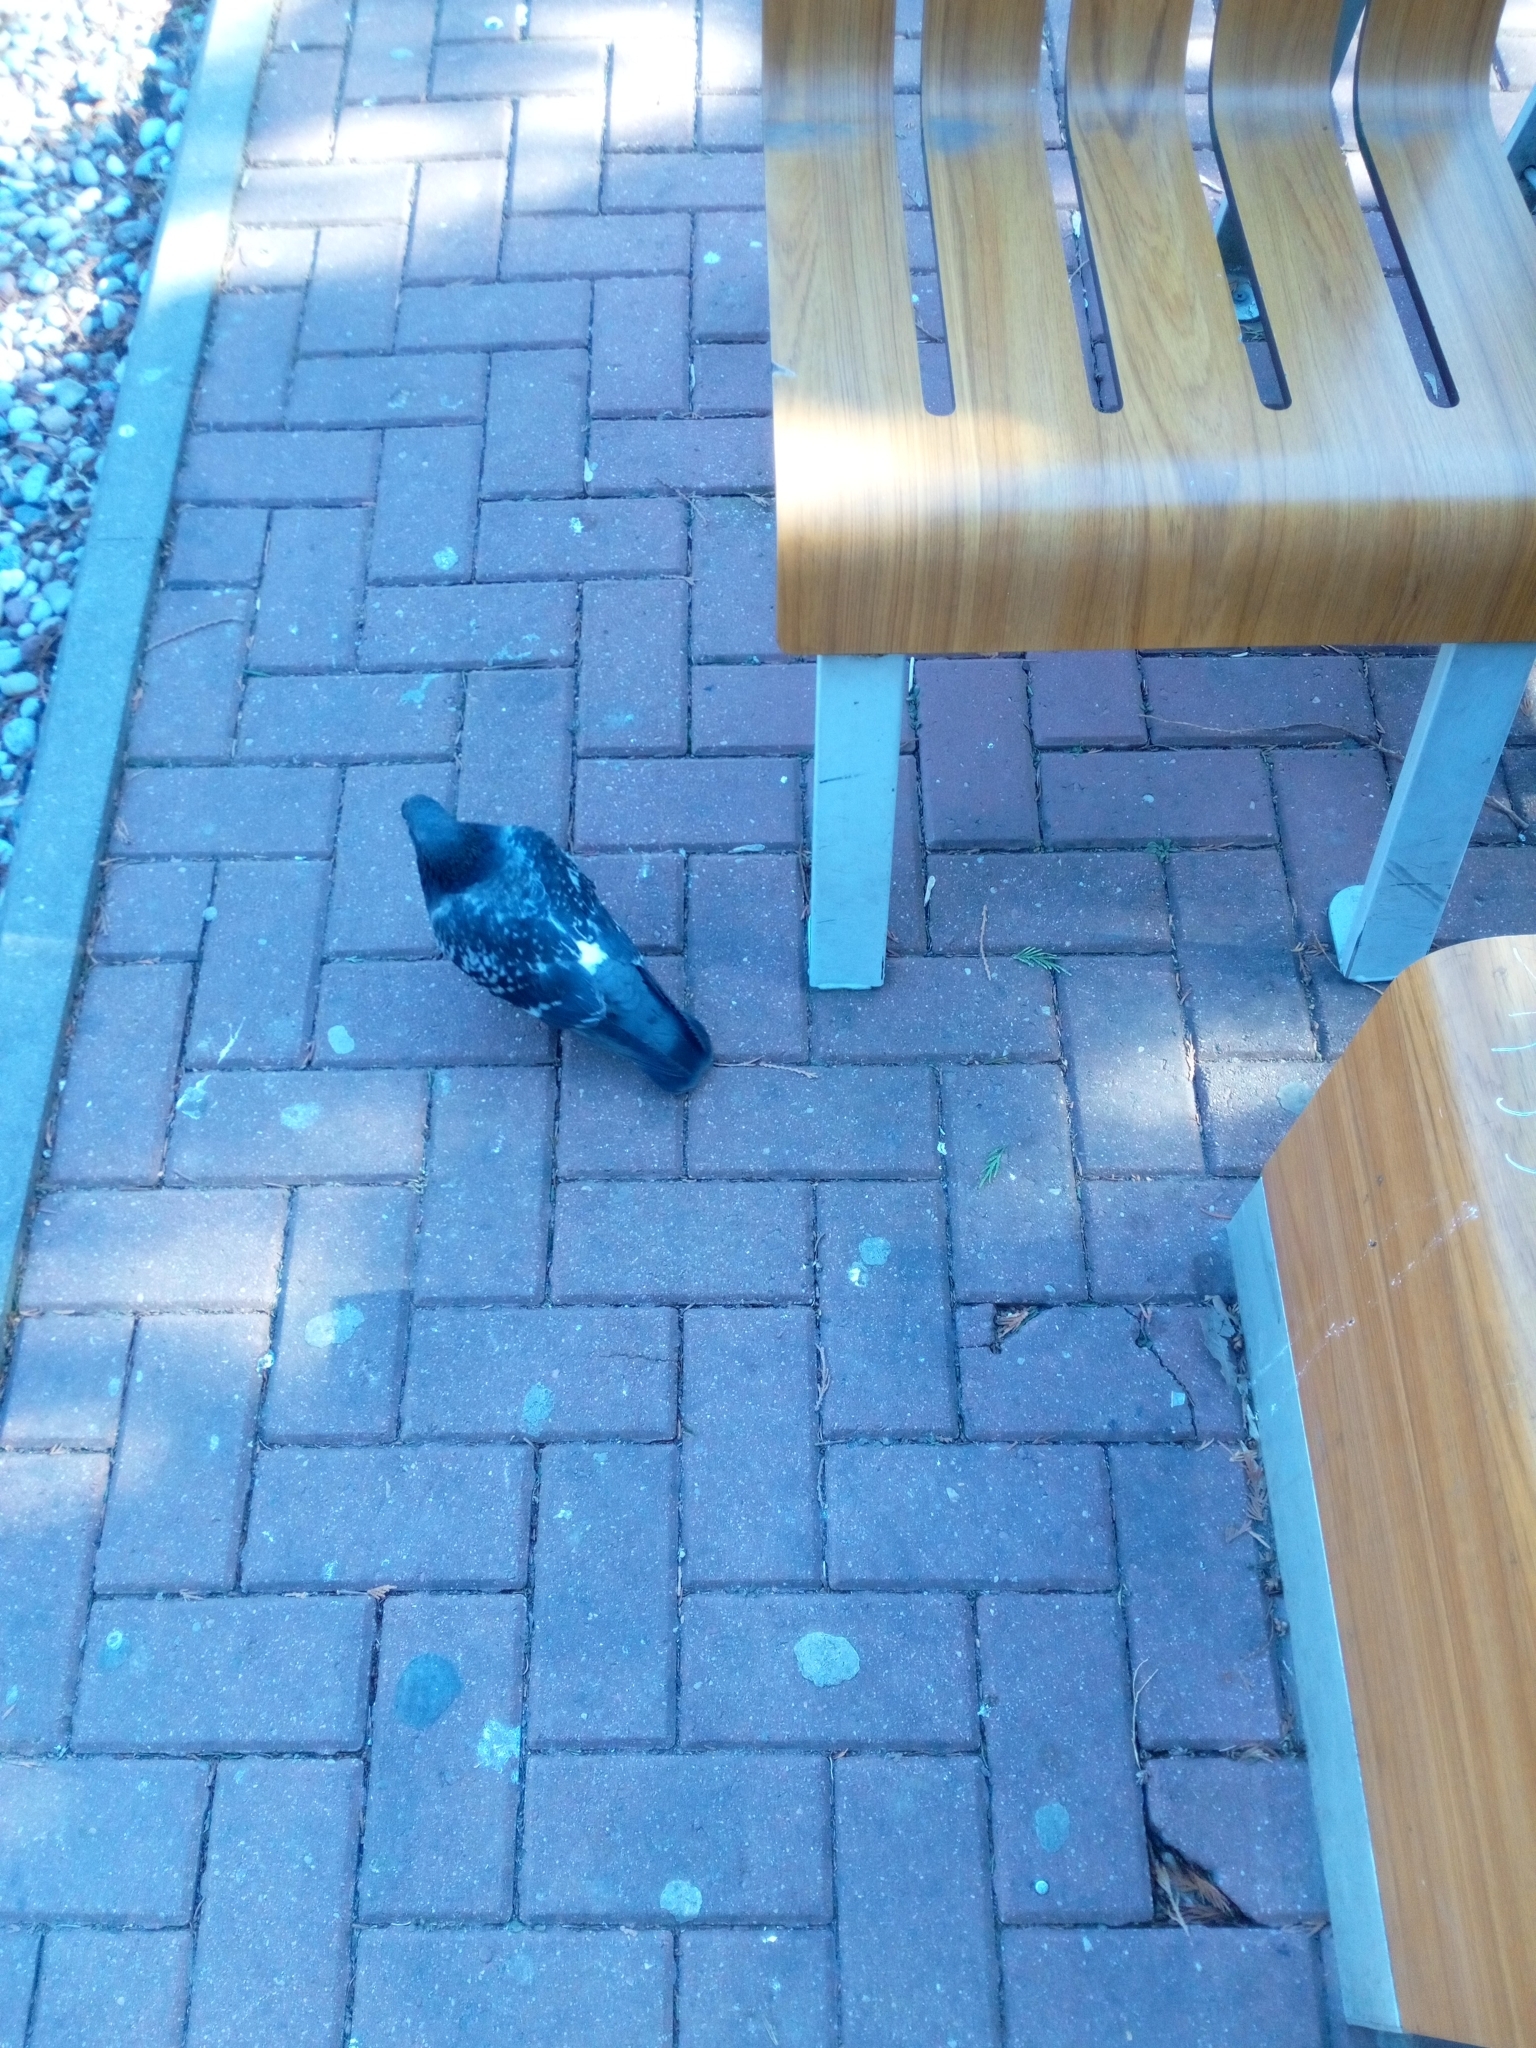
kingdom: Animalia
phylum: Chordata
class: Aves
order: Columbiformes
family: Columbidae
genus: Columba
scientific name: Columba livia
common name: Rock pigeon
